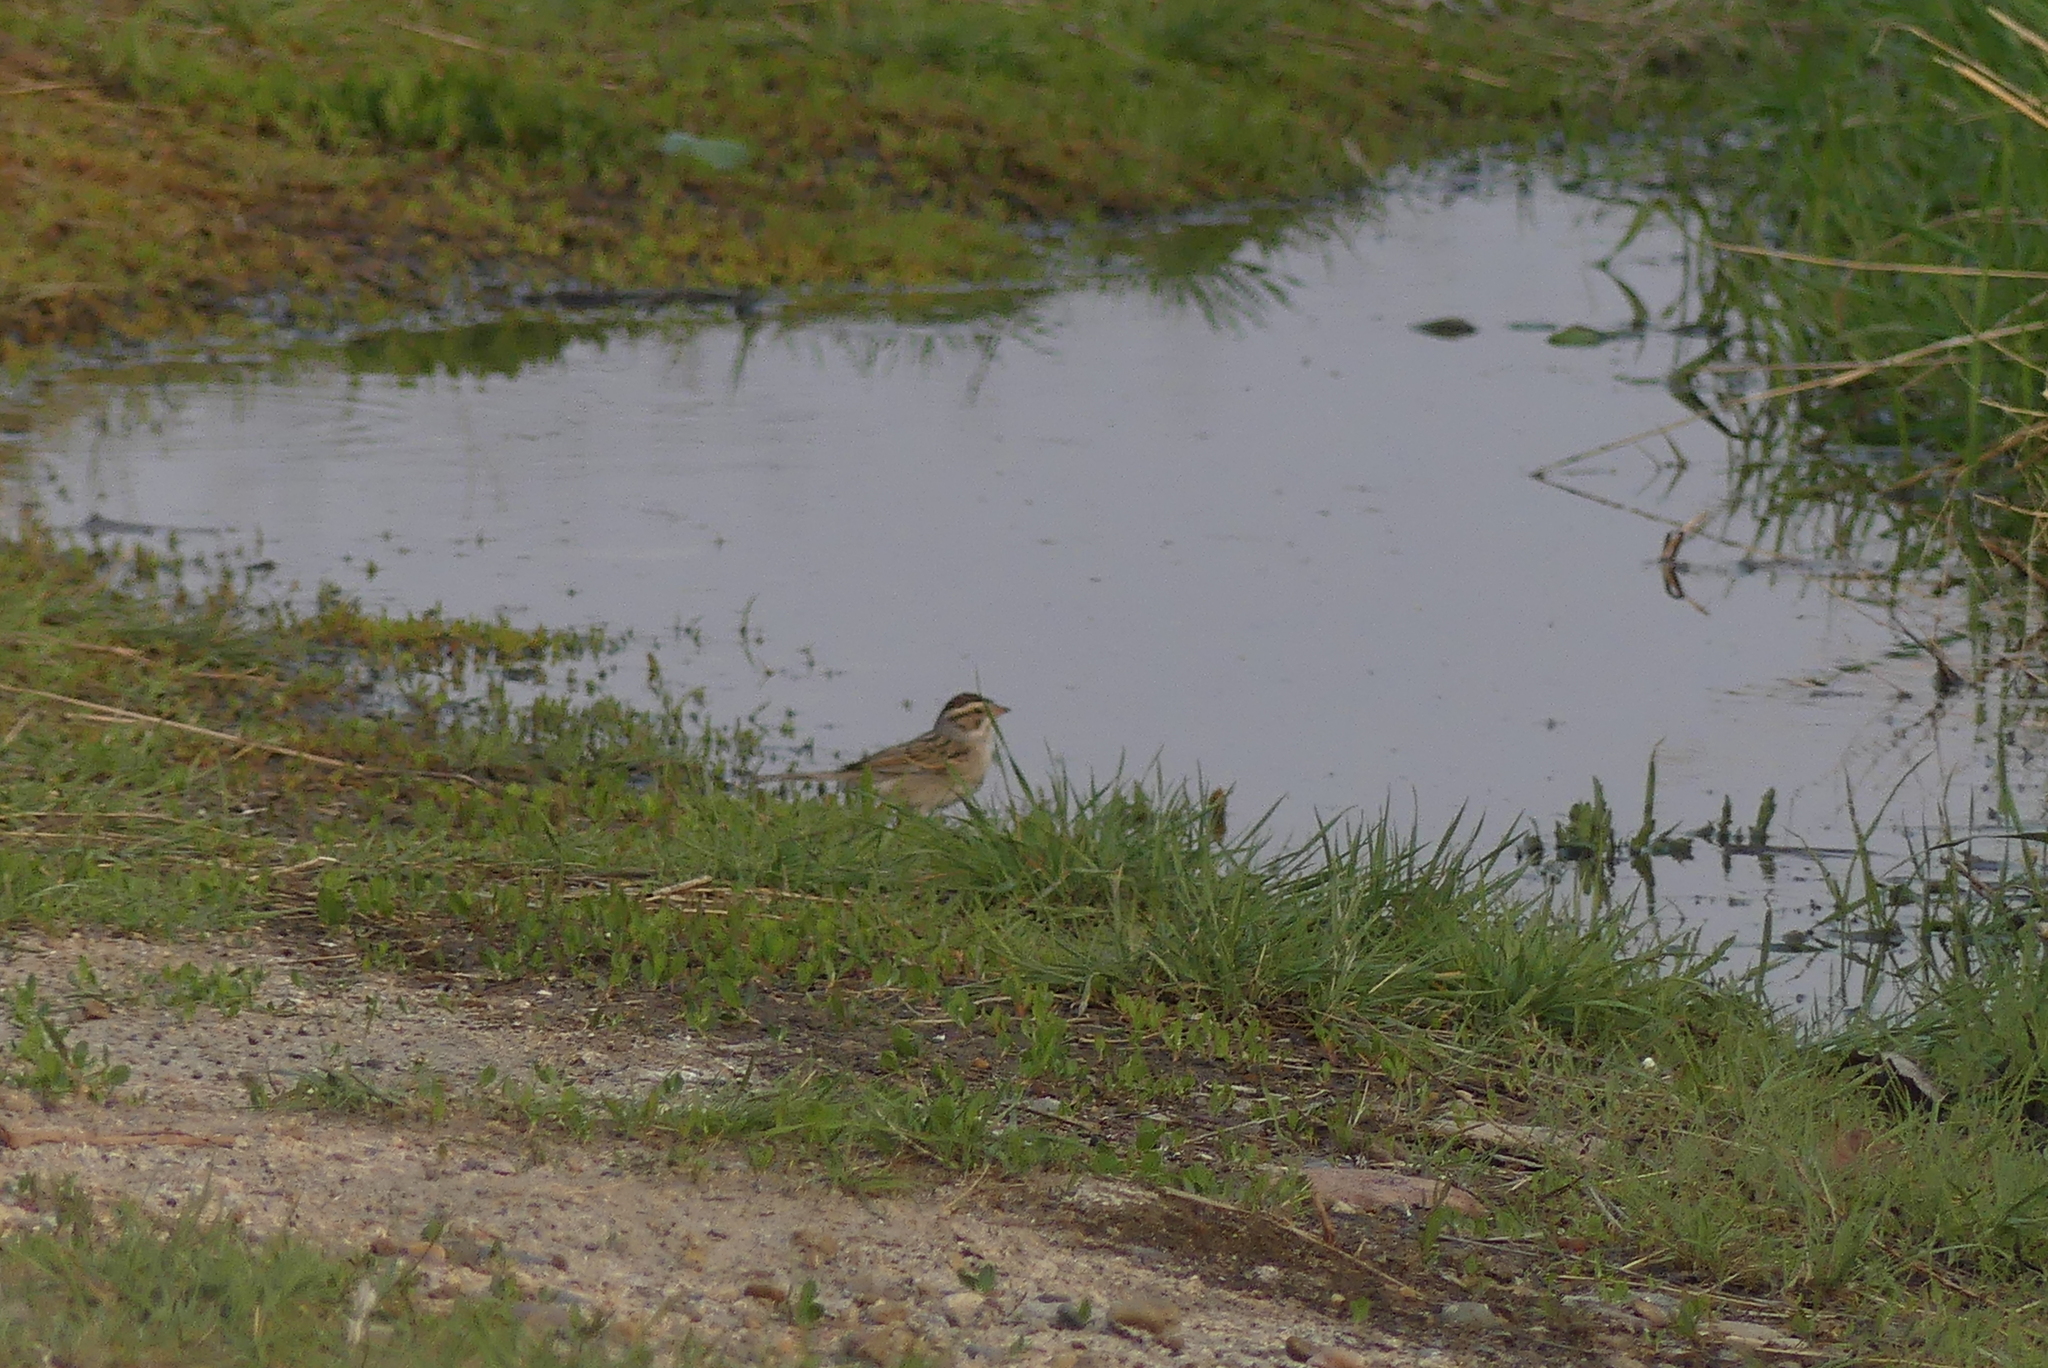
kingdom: Animalia
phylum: Chordata
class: Aves
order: Passeriformes
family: Passerellidae
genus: Spizella
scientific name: Spizella pallida
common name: Clay-colored sparrow
